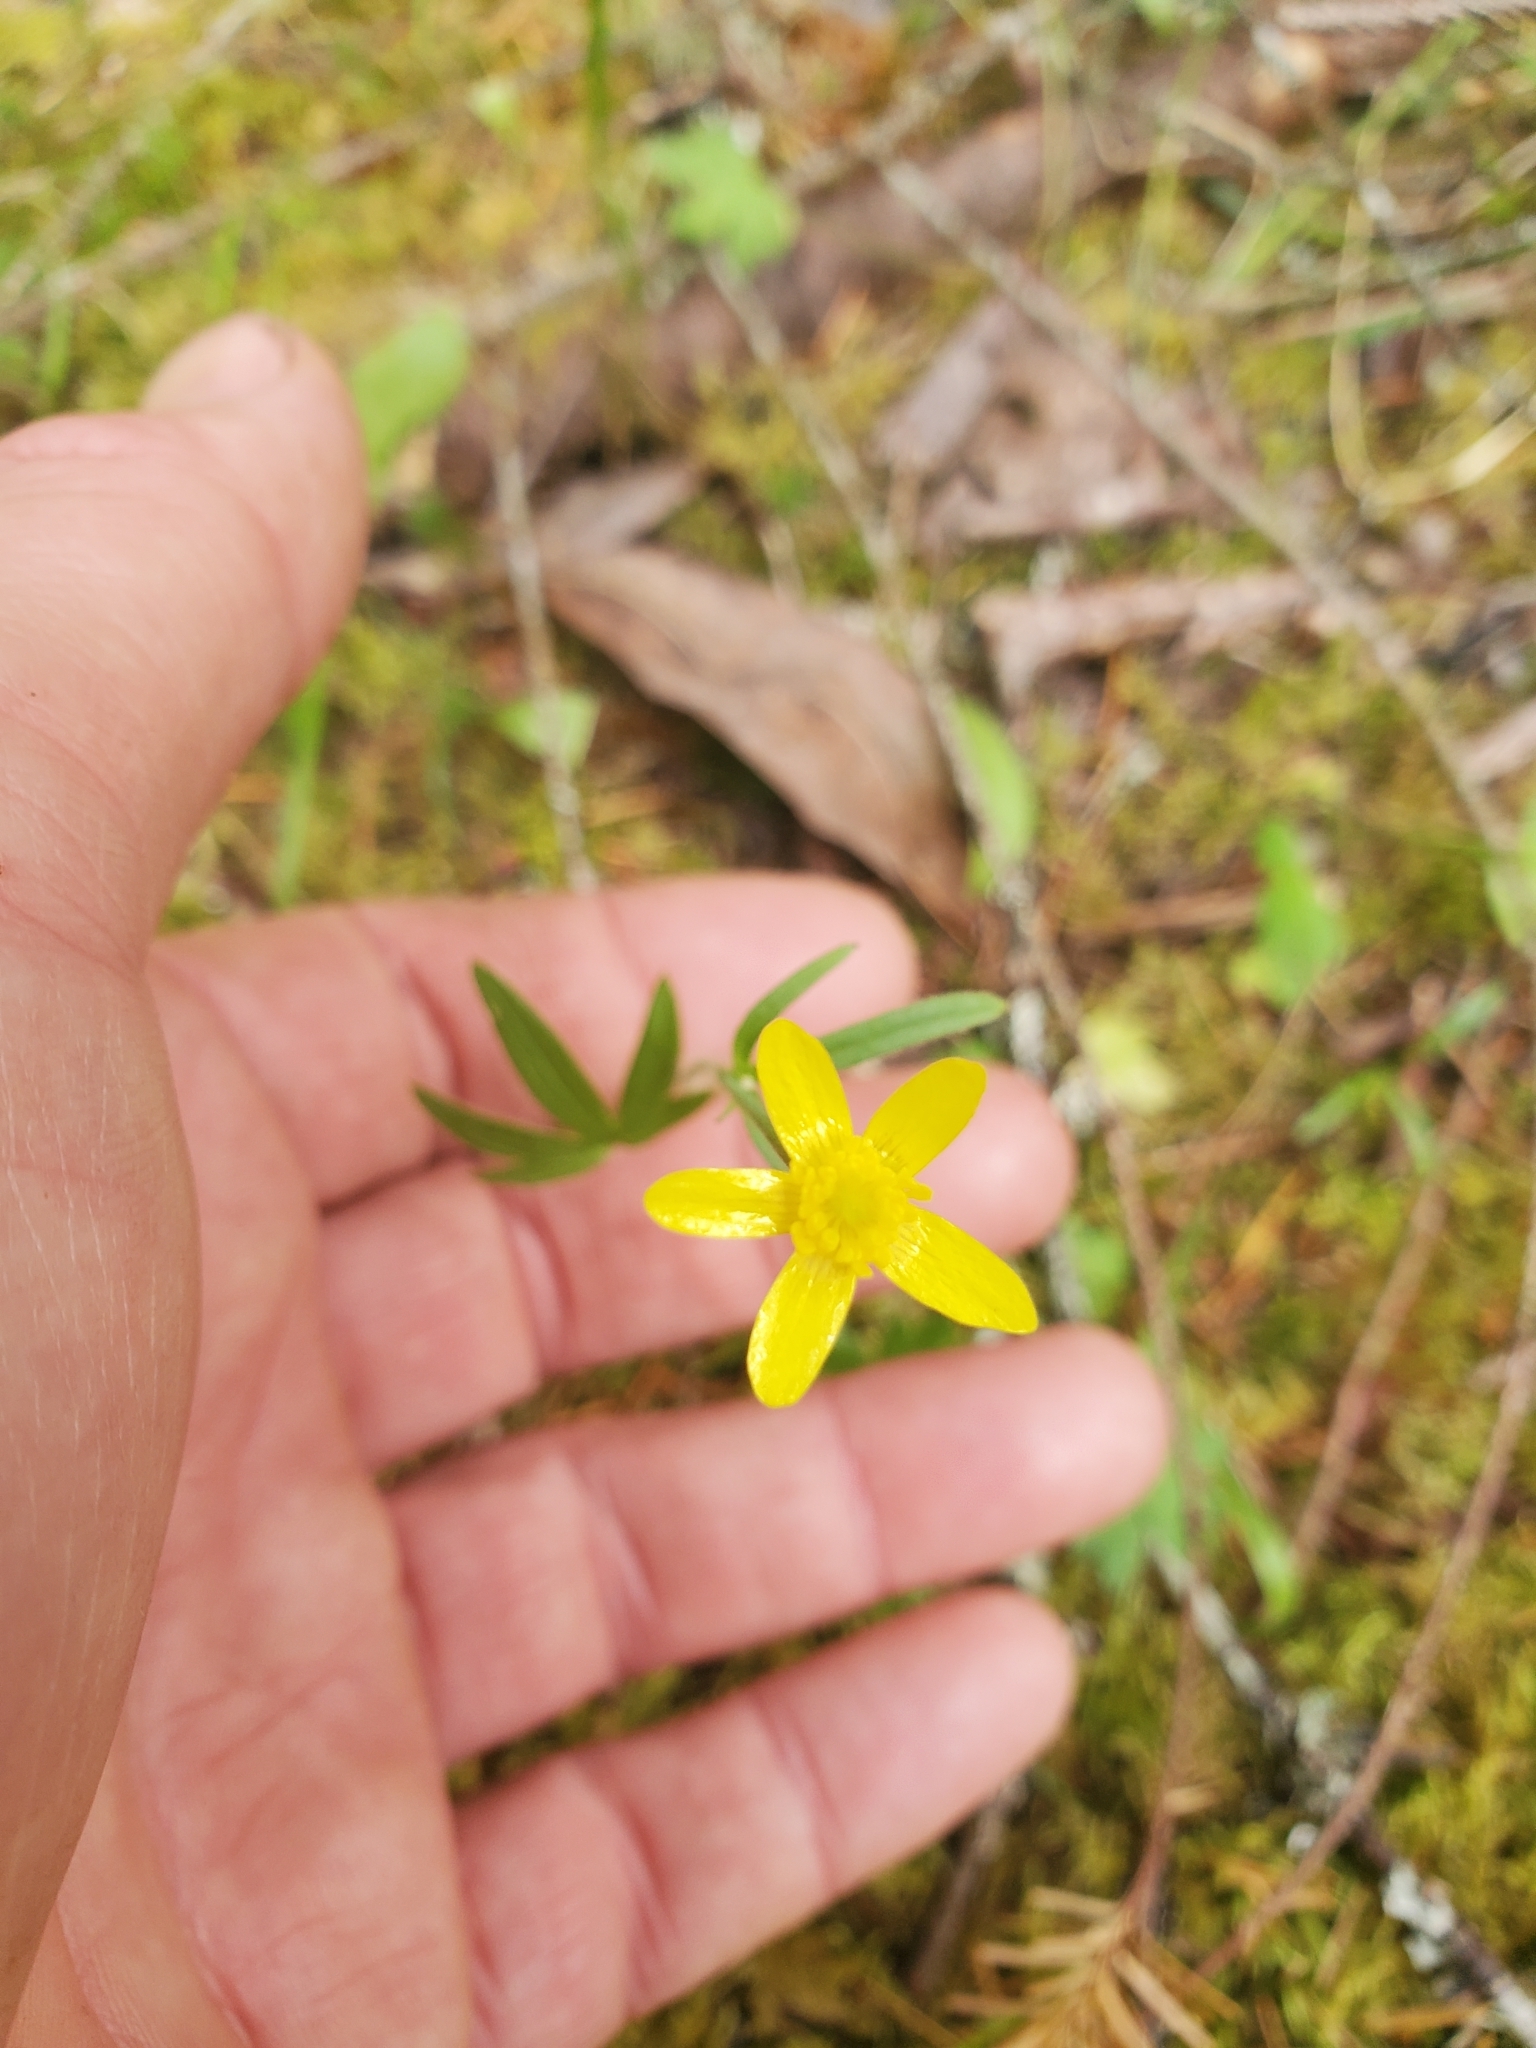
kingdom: Plantae
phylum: Tracheophyta
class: Magnoliopsida
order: Ranunculales
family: Ranunculaceae
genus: Ranunculus
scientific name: Ranunculus occidentalis
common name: Western buttercup
